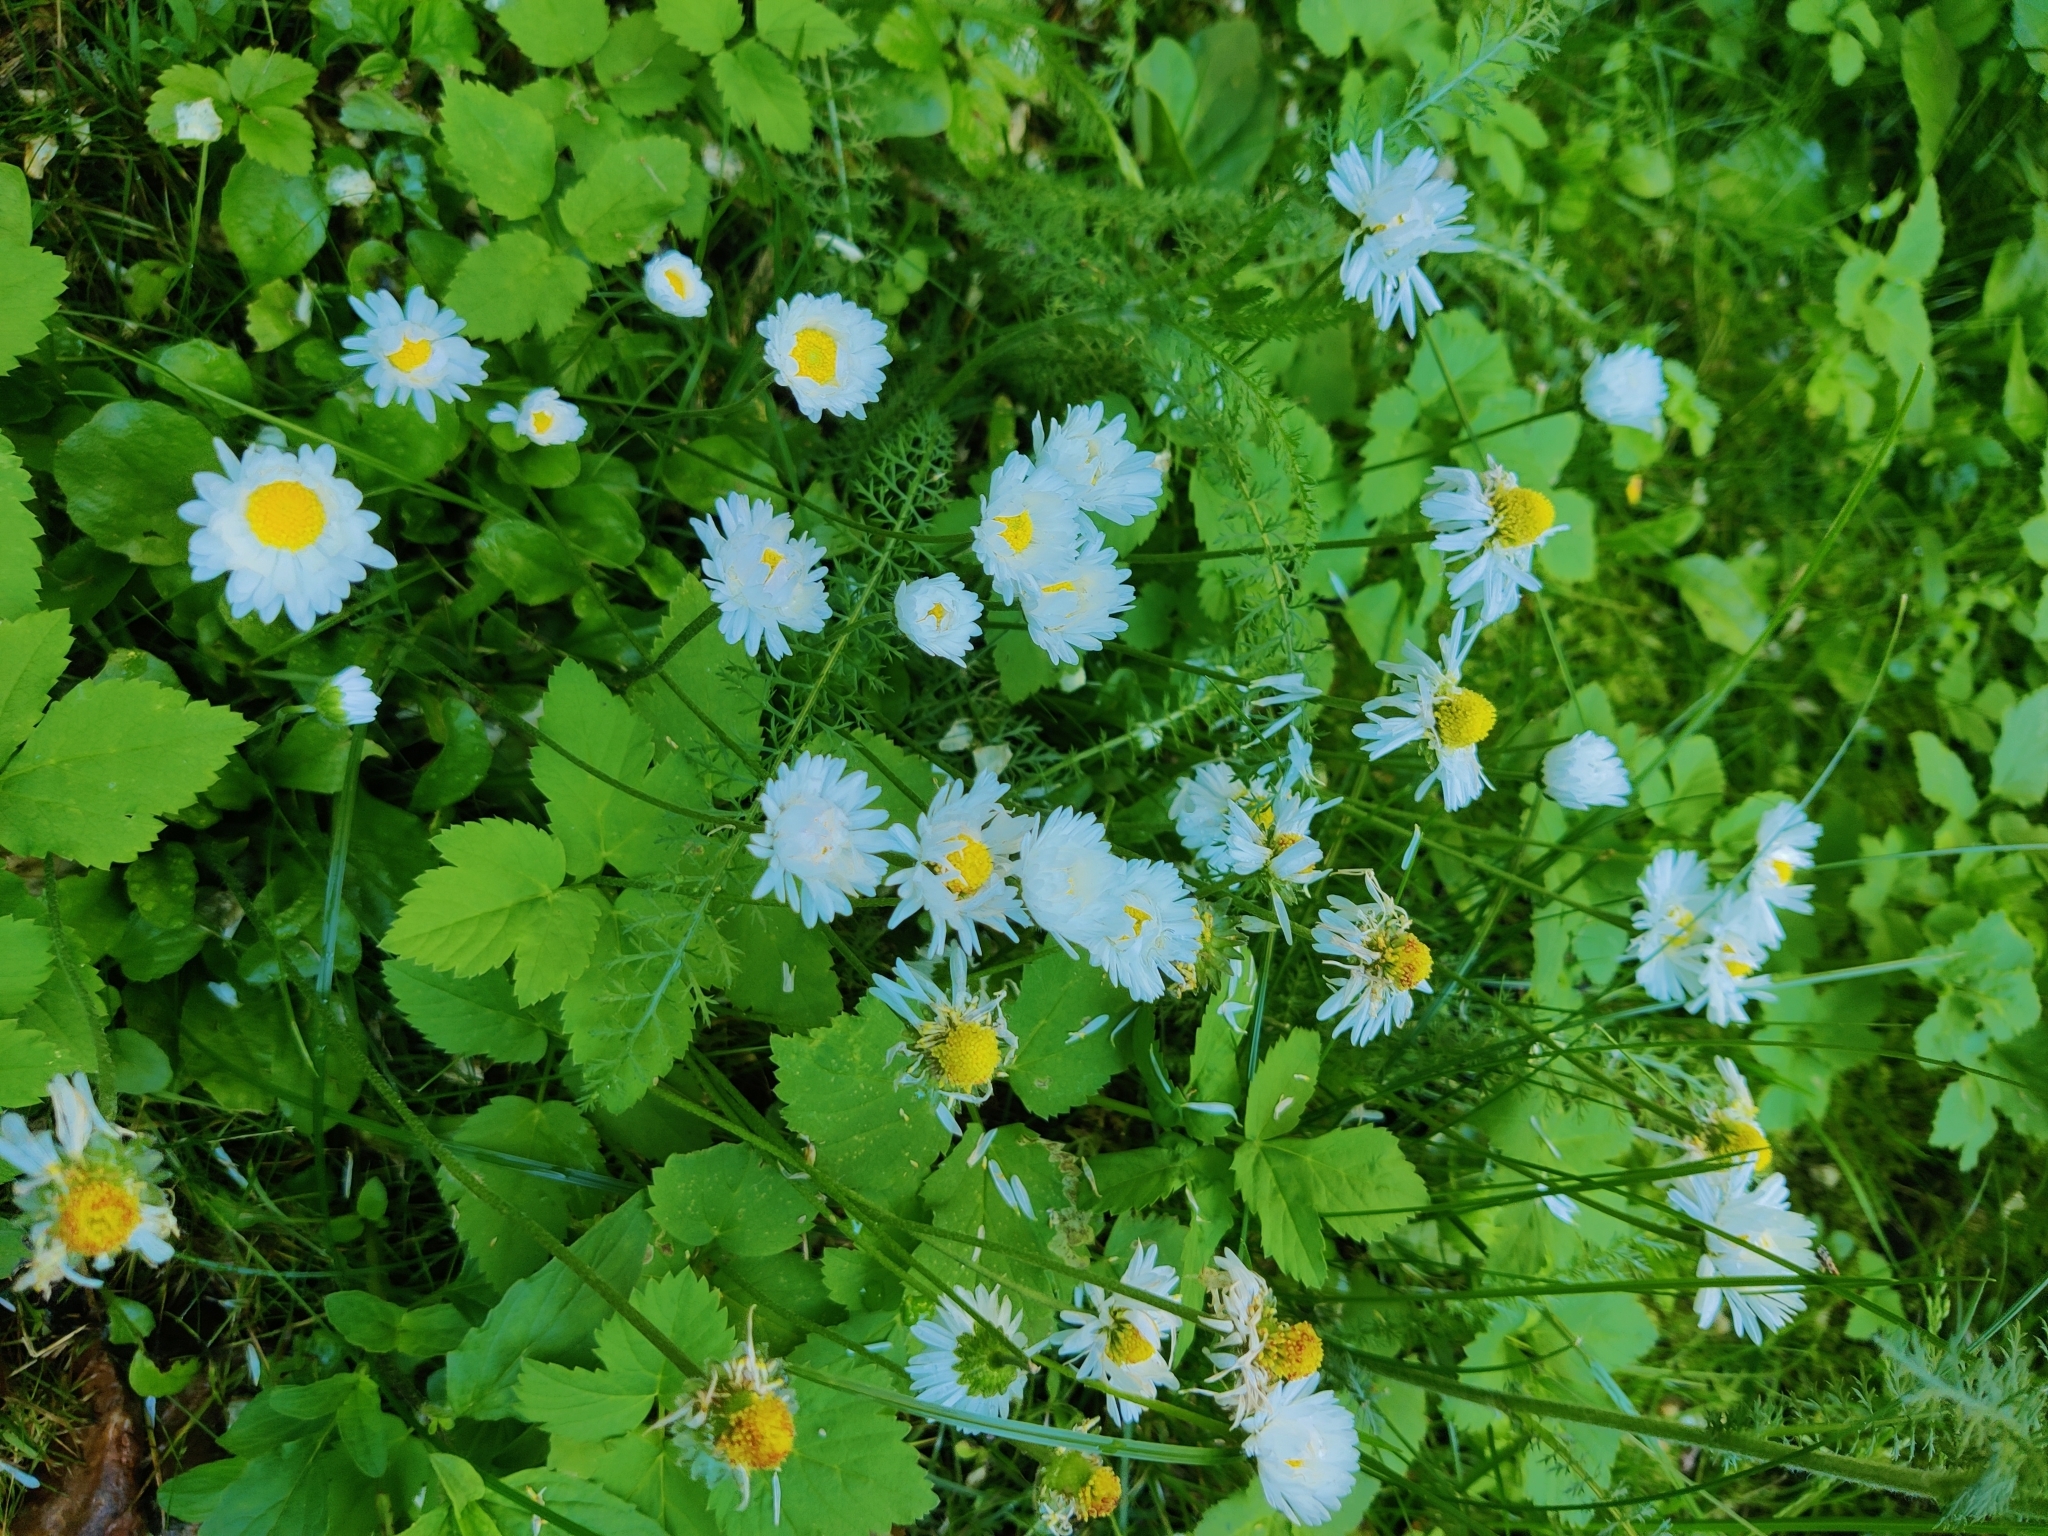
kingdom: Plantae
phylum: Tracheophyta
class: Magnoliopsida
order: Asterales
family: Asteraceae
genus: Bellis
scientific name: Bellis perennis
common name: Lawndaisy
